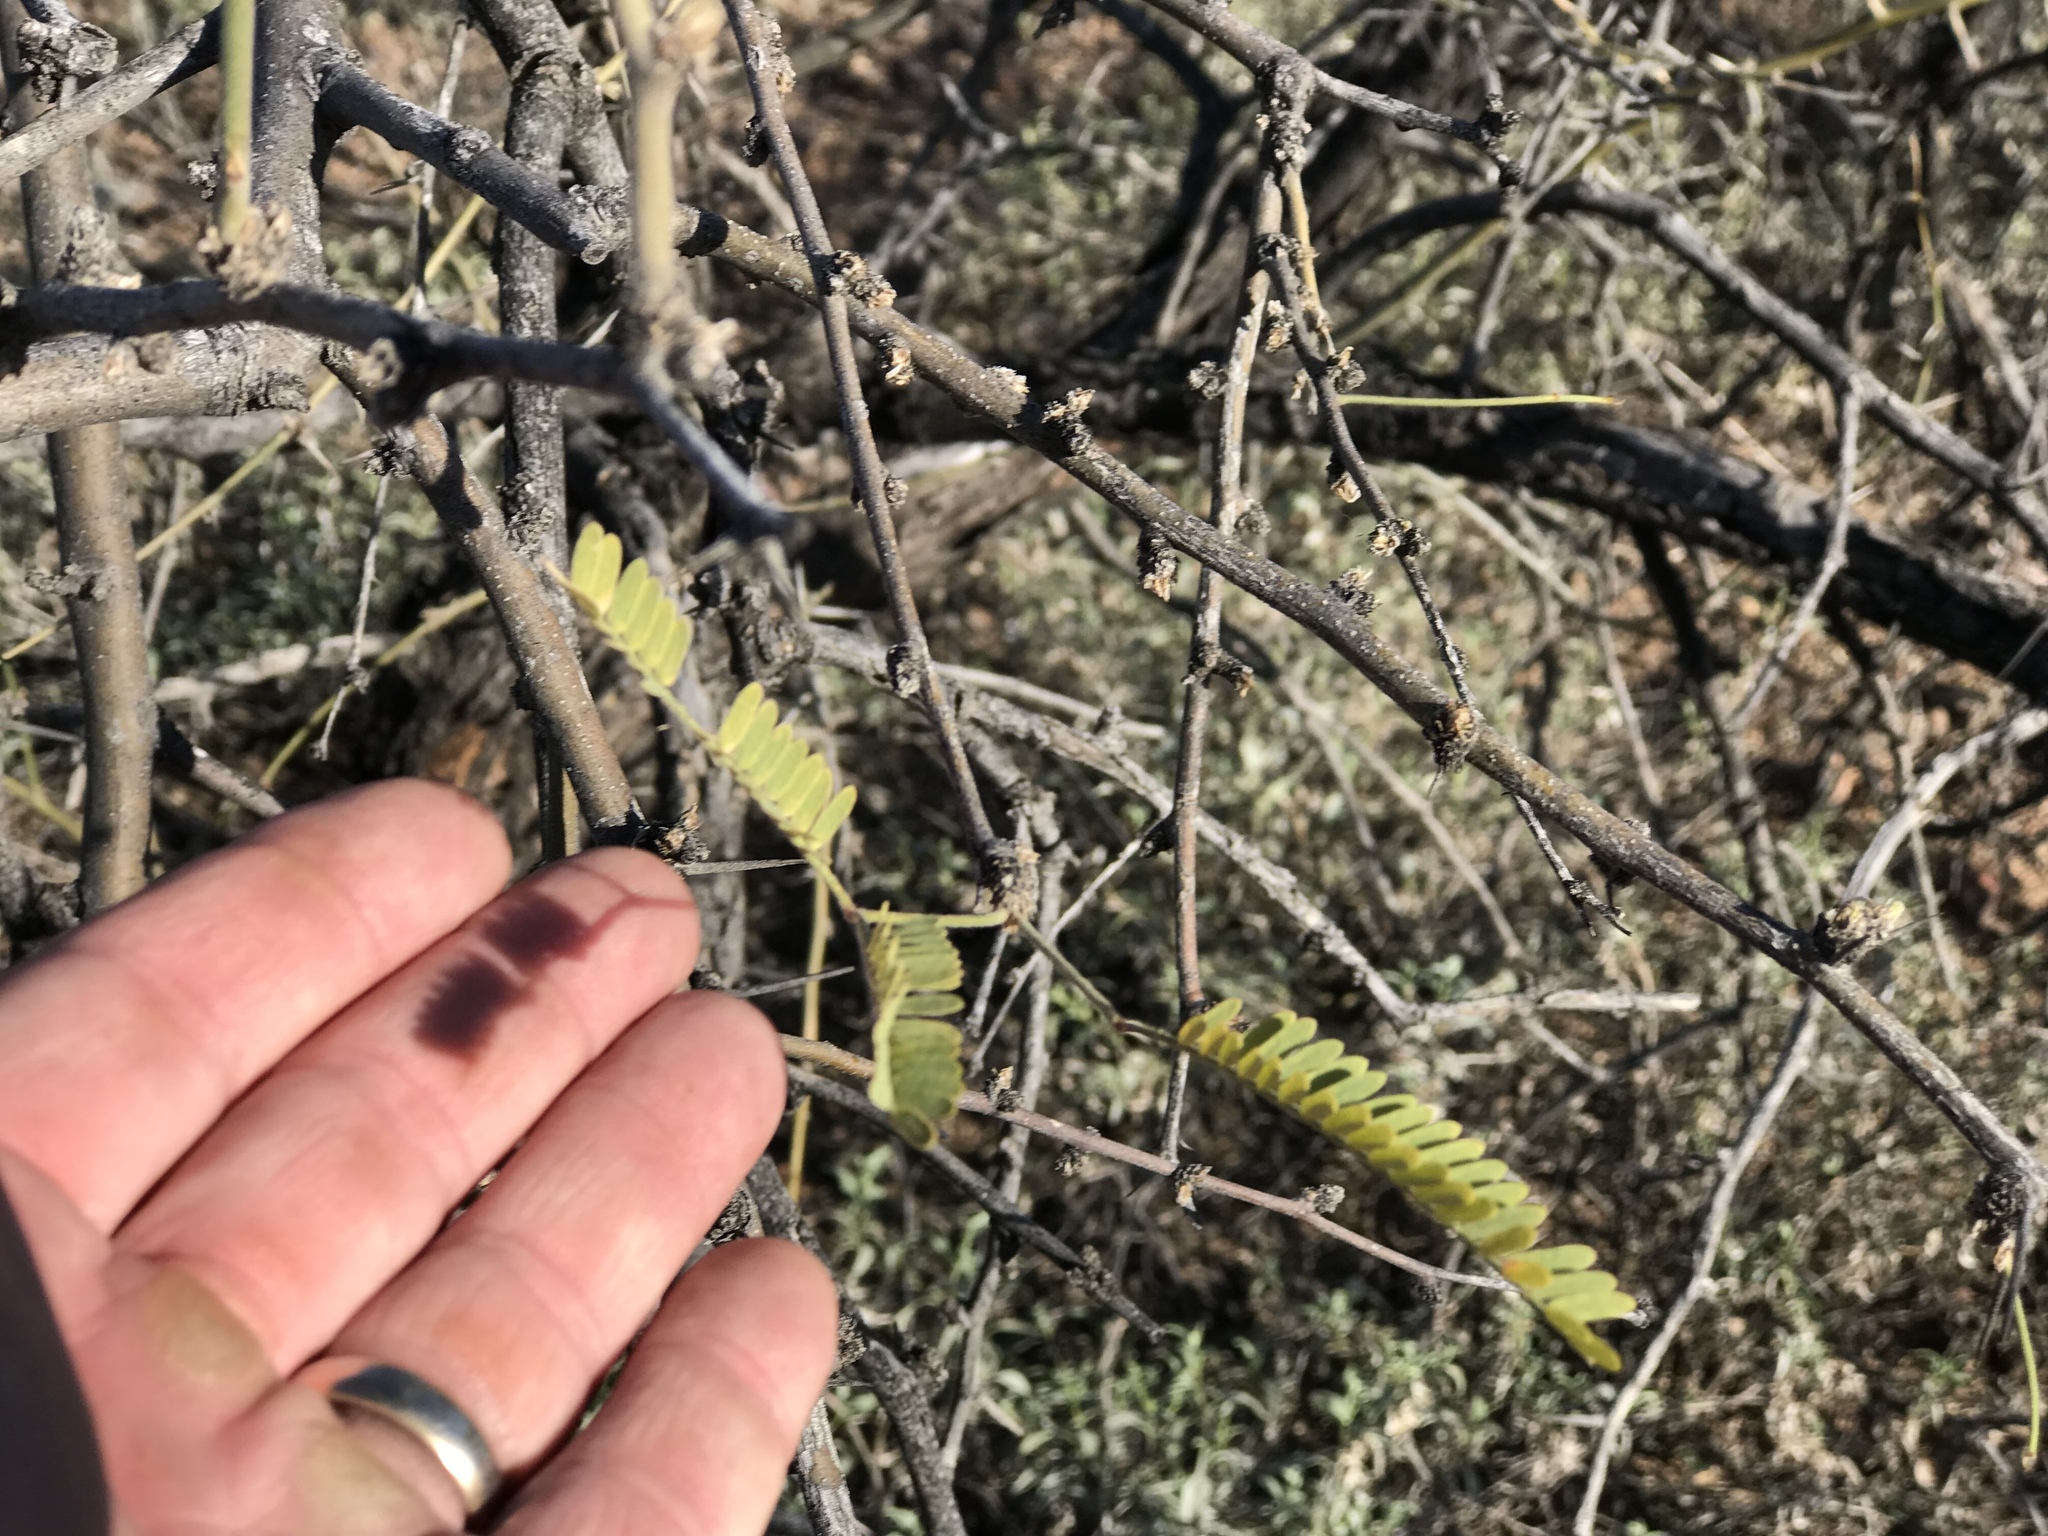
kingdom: Plantae
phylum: Tracheophyta
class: Magnoliopsida
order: Fabales
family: Fabaceae
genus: Prosopis
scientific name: Prosopis velutina
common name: Velvet mesquite
